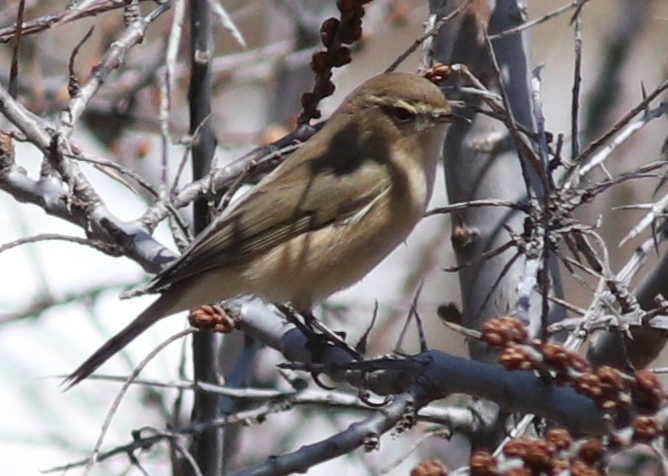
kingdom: Animalia
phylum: Chordata
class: Aves
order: Passeriformes
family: Phylloscopidae
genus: Phylloscopus
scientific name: Phylloscopus sindianus
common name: Mountain chiffchaff
